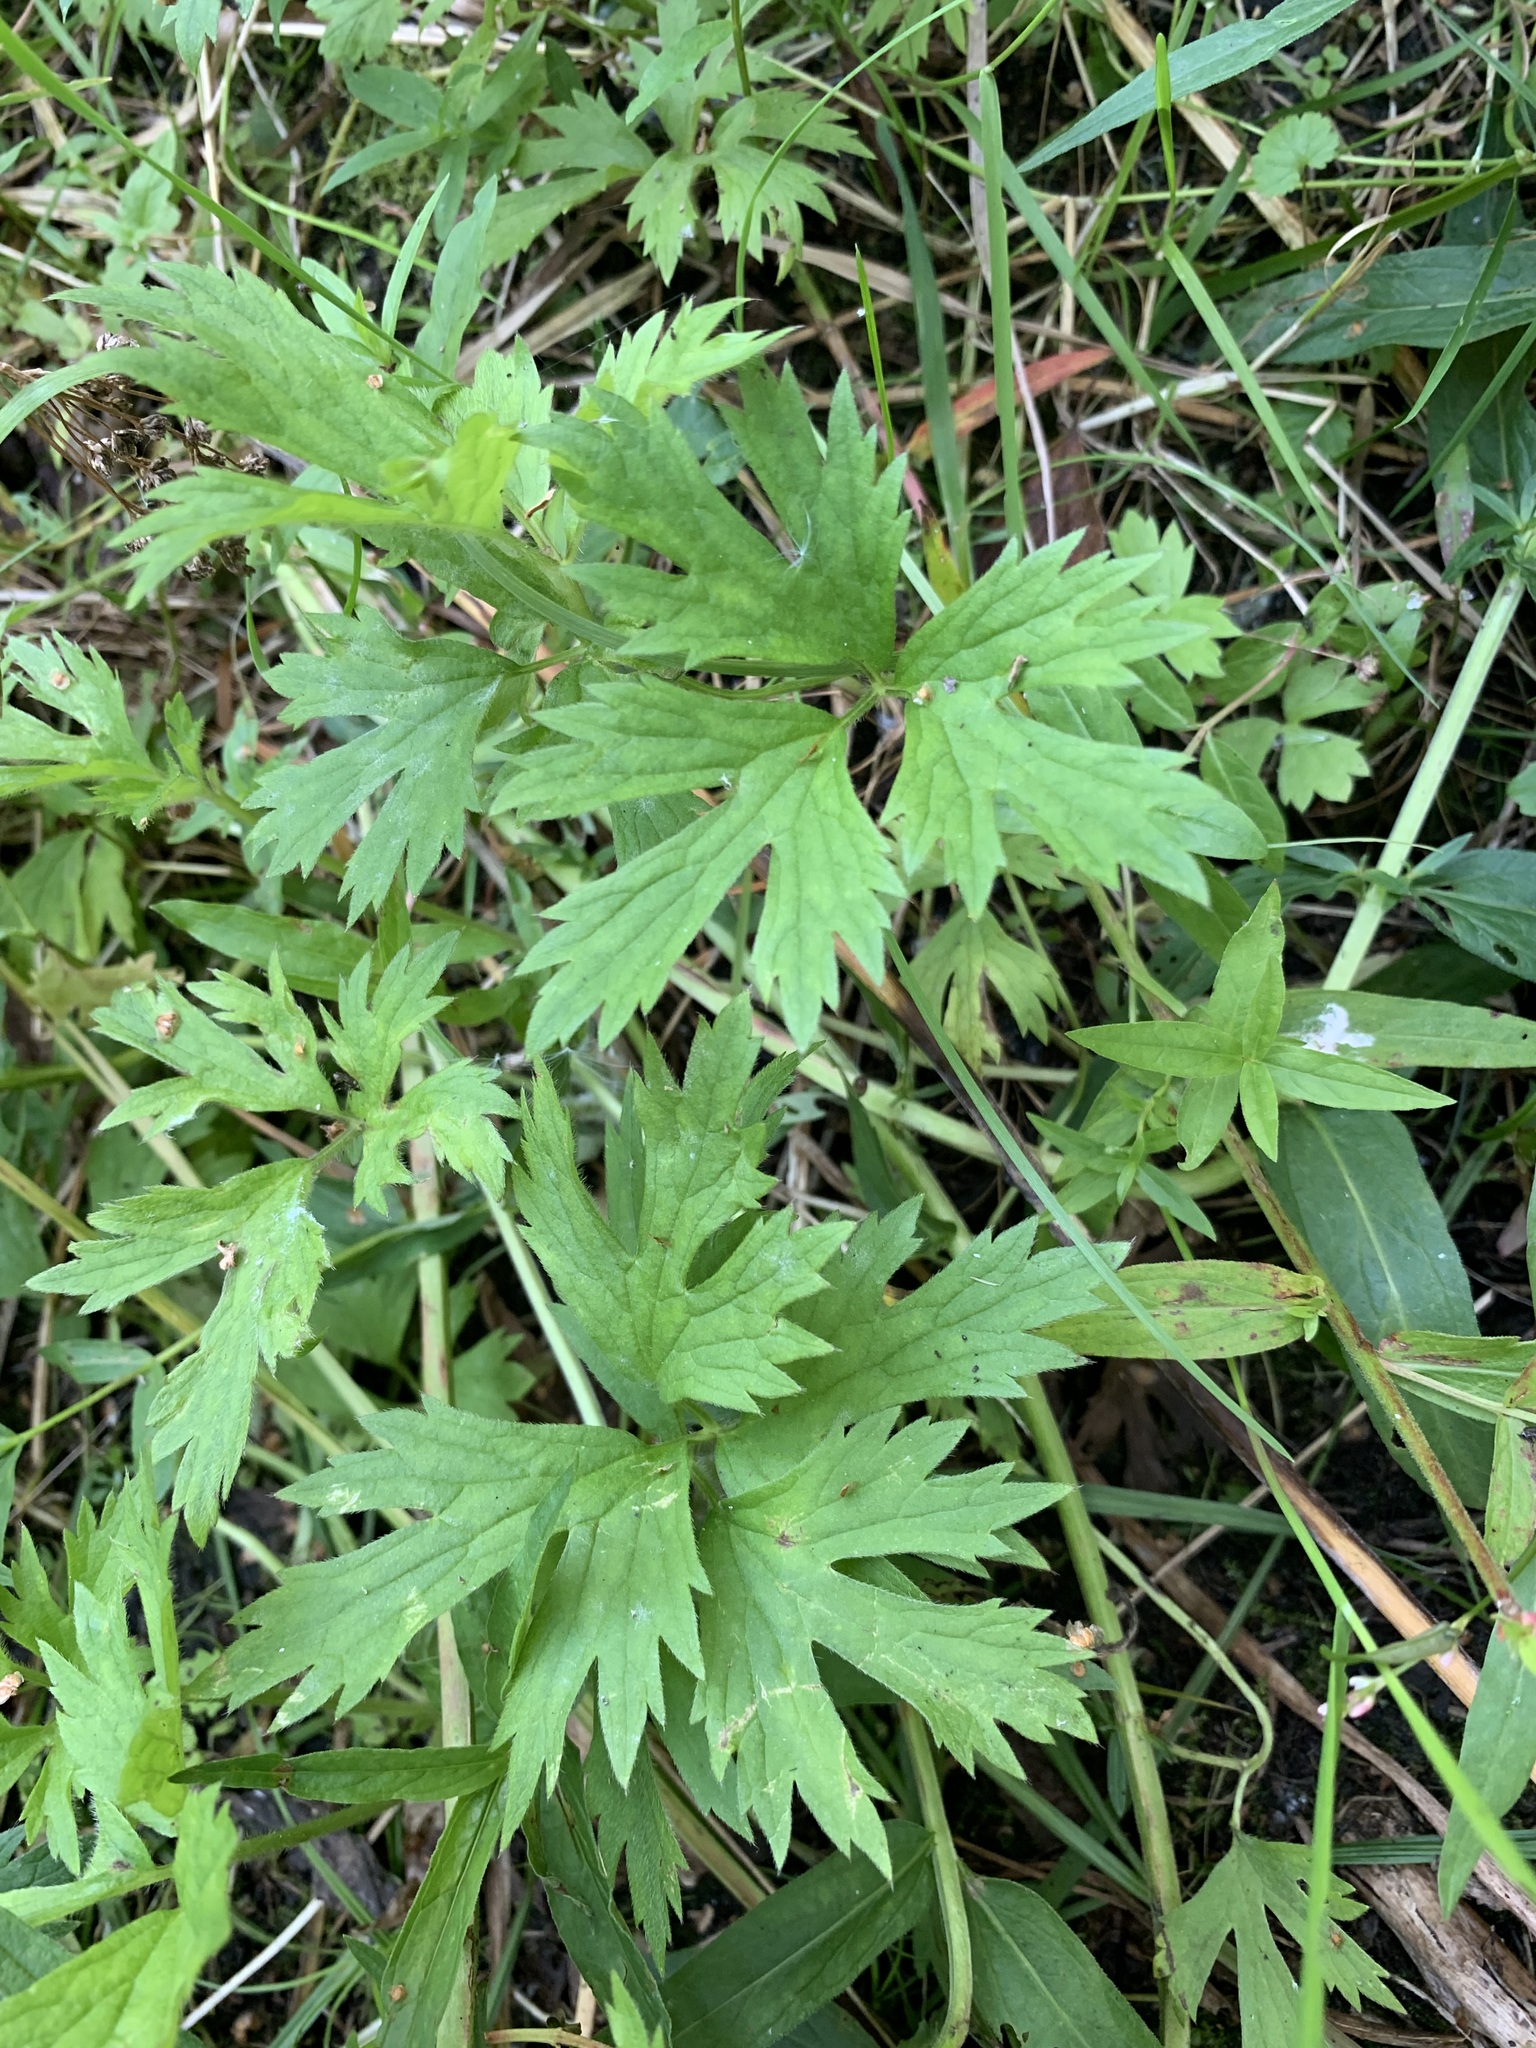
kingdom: Plantae
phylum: Tracheophyta
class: Magnoliopsida
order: Ranunculales
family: Ranunculaceae
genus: Ranunculus
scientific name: Ranunculus repens
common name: Creeping buttercup
